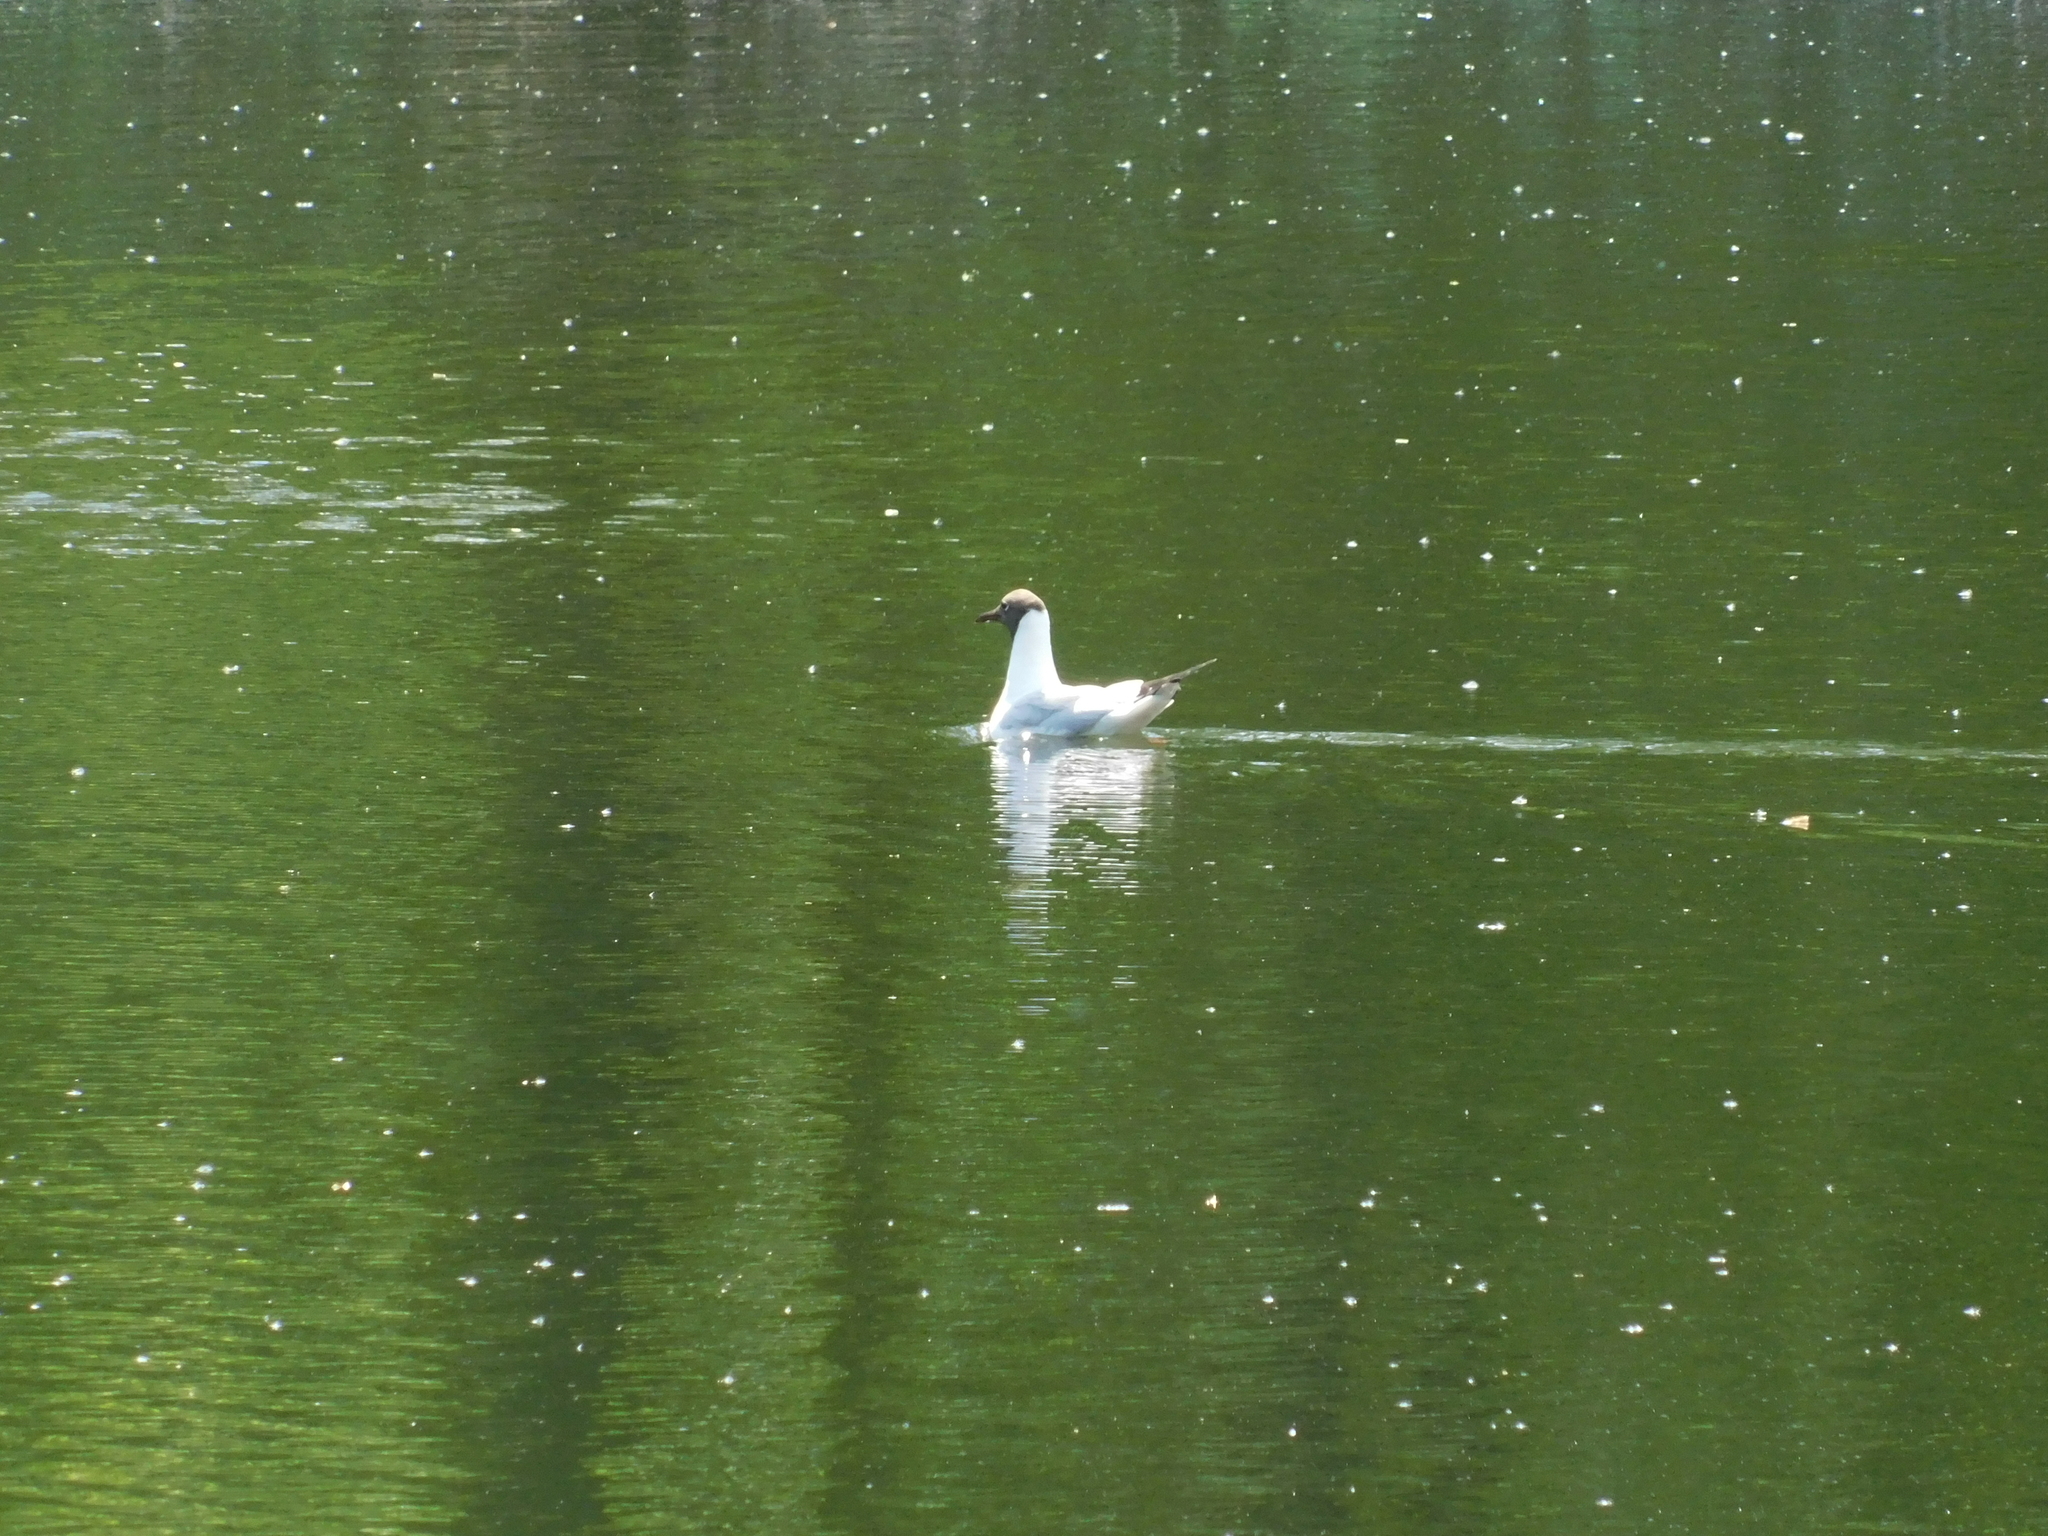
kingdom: Animalia
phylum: Chordata
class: Aves
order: Charadriiformes
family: Laridae
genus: Chroicocephalus
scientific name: Chroicocephalus ridibundus
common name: Black-headed gull
